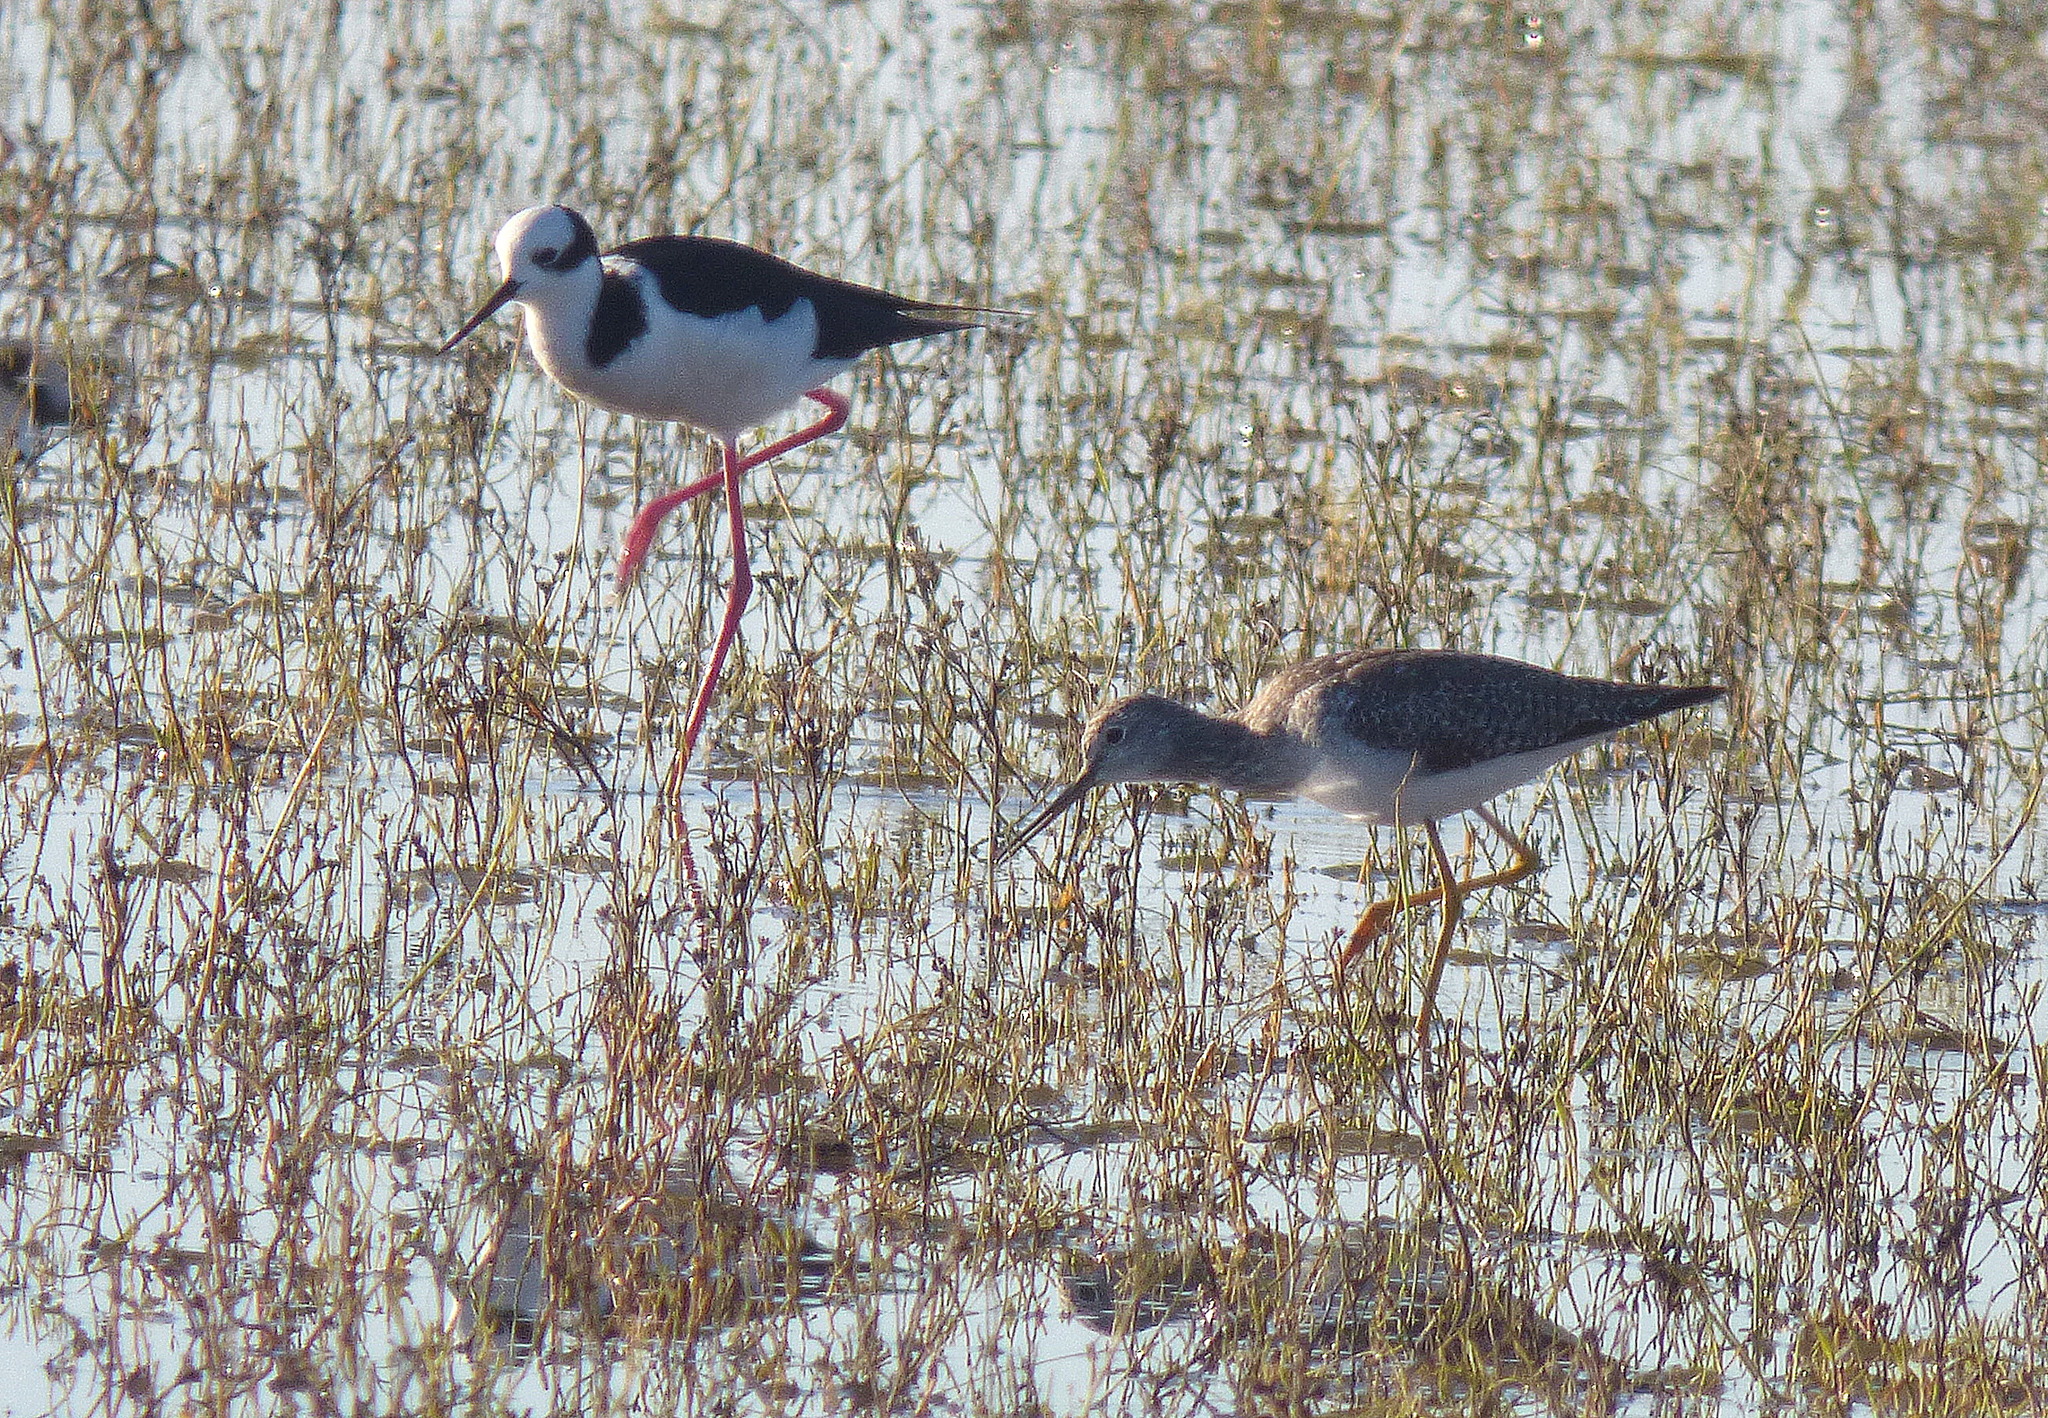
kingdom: Animalia
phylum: Chordata
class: Aves
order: Charadriiformes
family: Scolopacidae
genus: Tringa
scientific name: Tringa melanoleuca
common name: Greater yellowlegs
